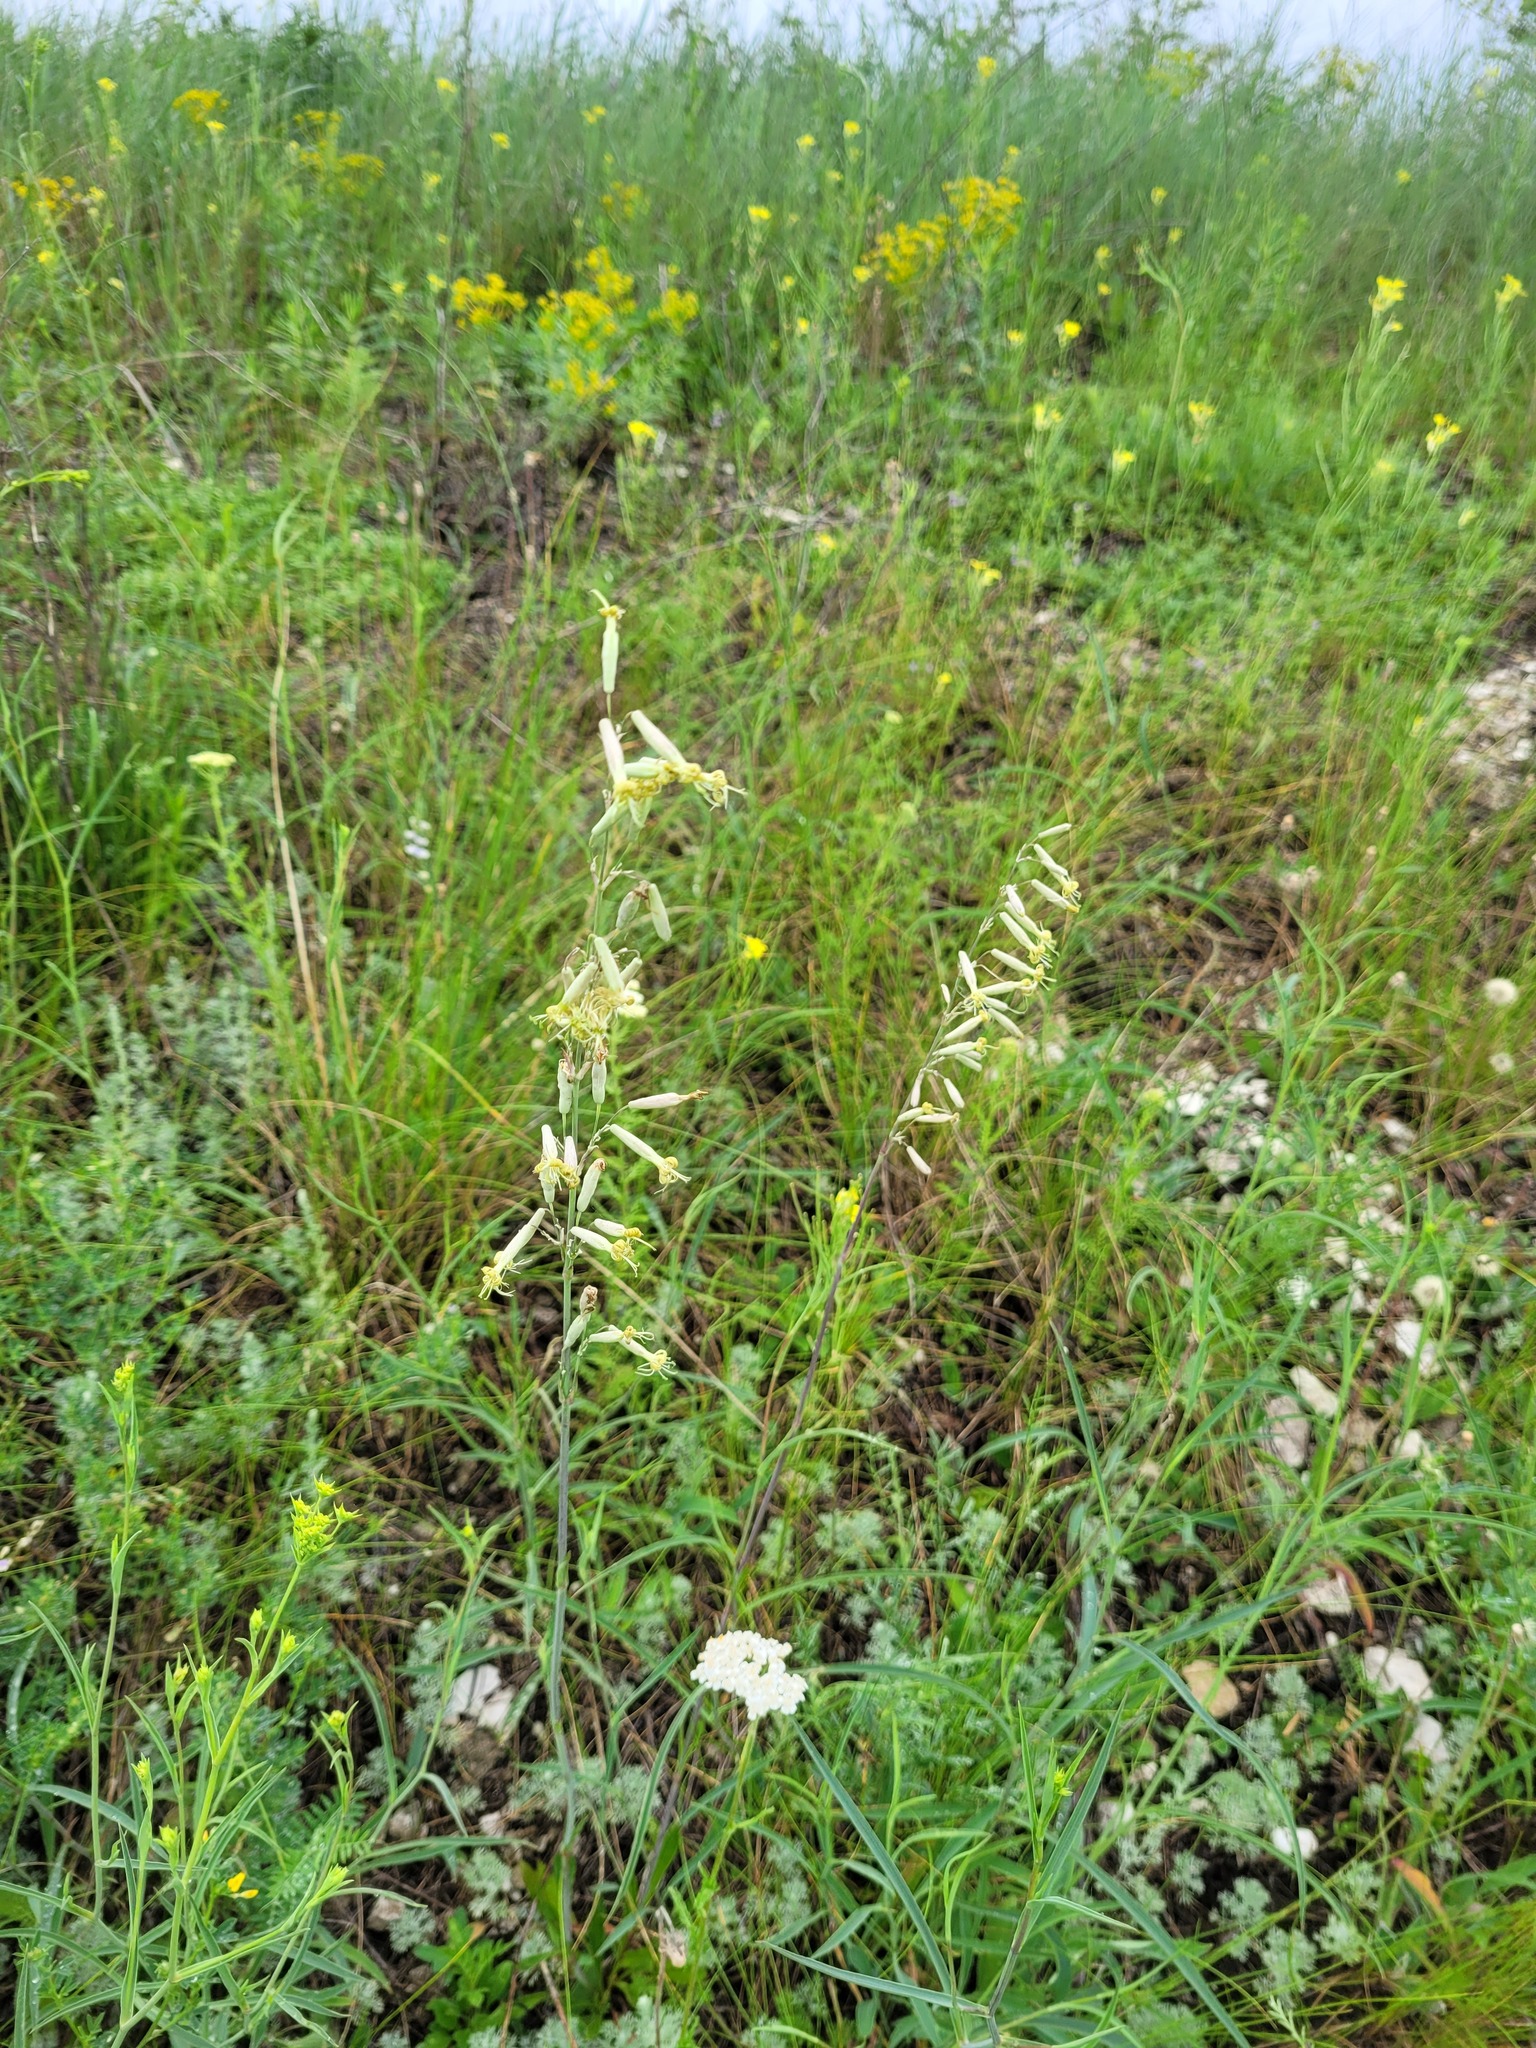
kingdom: Plantae
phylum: Tracheophyta
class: Magnoliopsida
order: Caryophyllales
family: Caryophyllaceae
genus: Silene
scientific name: Silene chlorantha
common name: Yellowgreen catchfly
